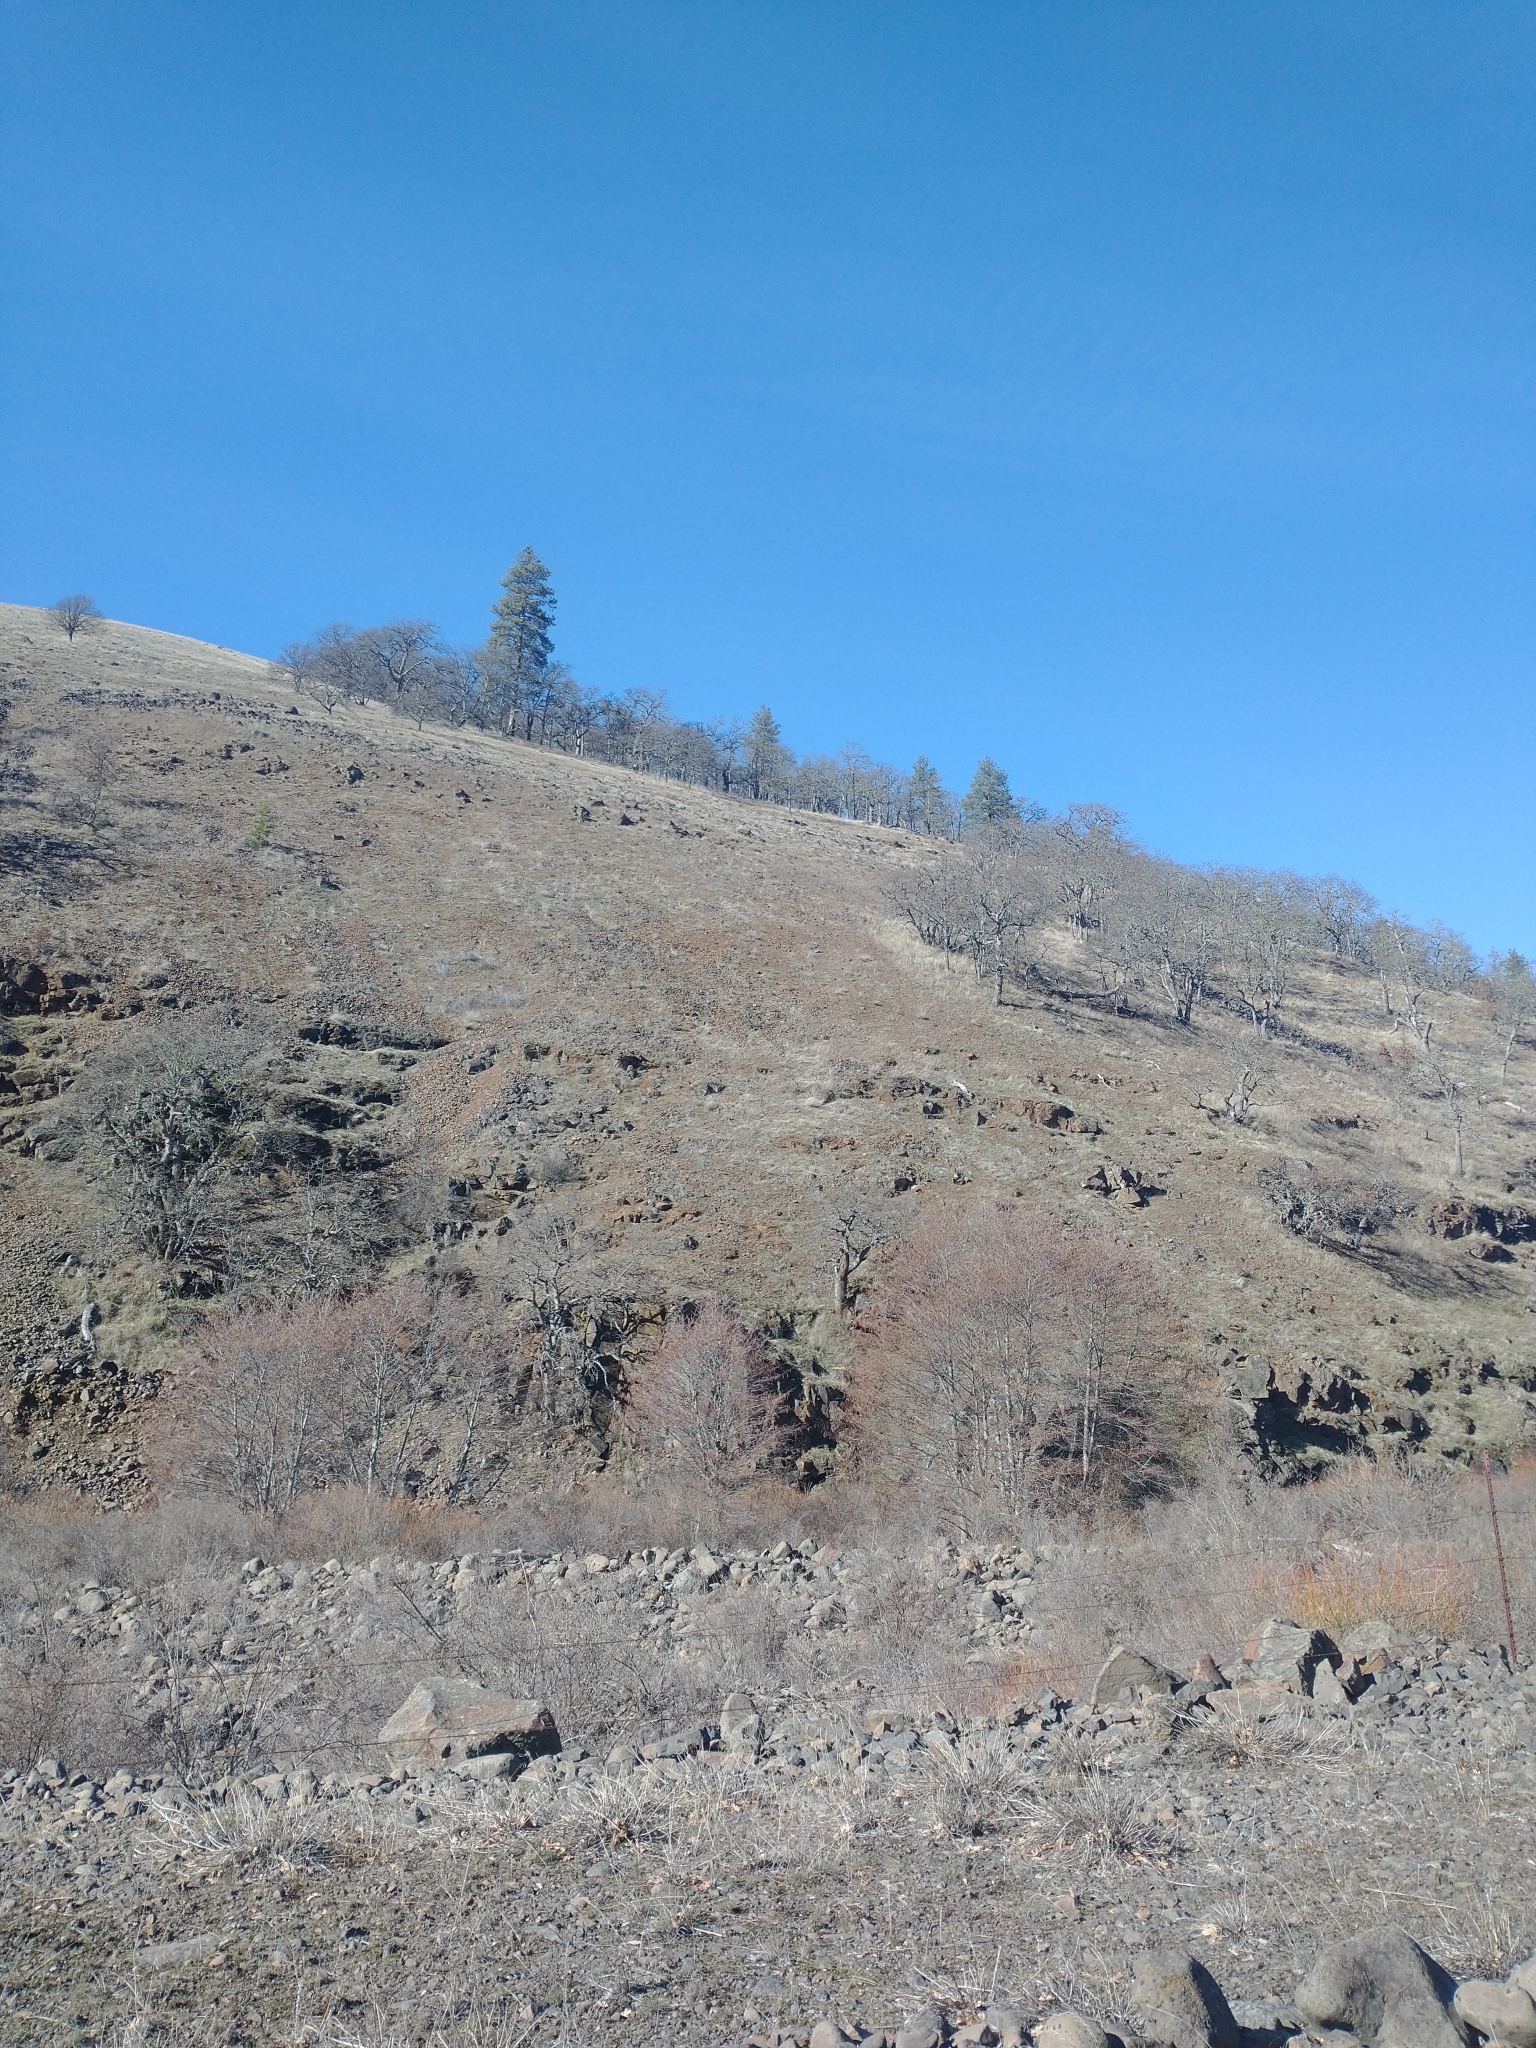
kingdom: Plantae
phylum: Tracheophyta
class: Magnoliopsida
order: Fagales
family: Fagaceae
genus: Quercus
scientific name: Quercus garryana
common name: Garry oak
